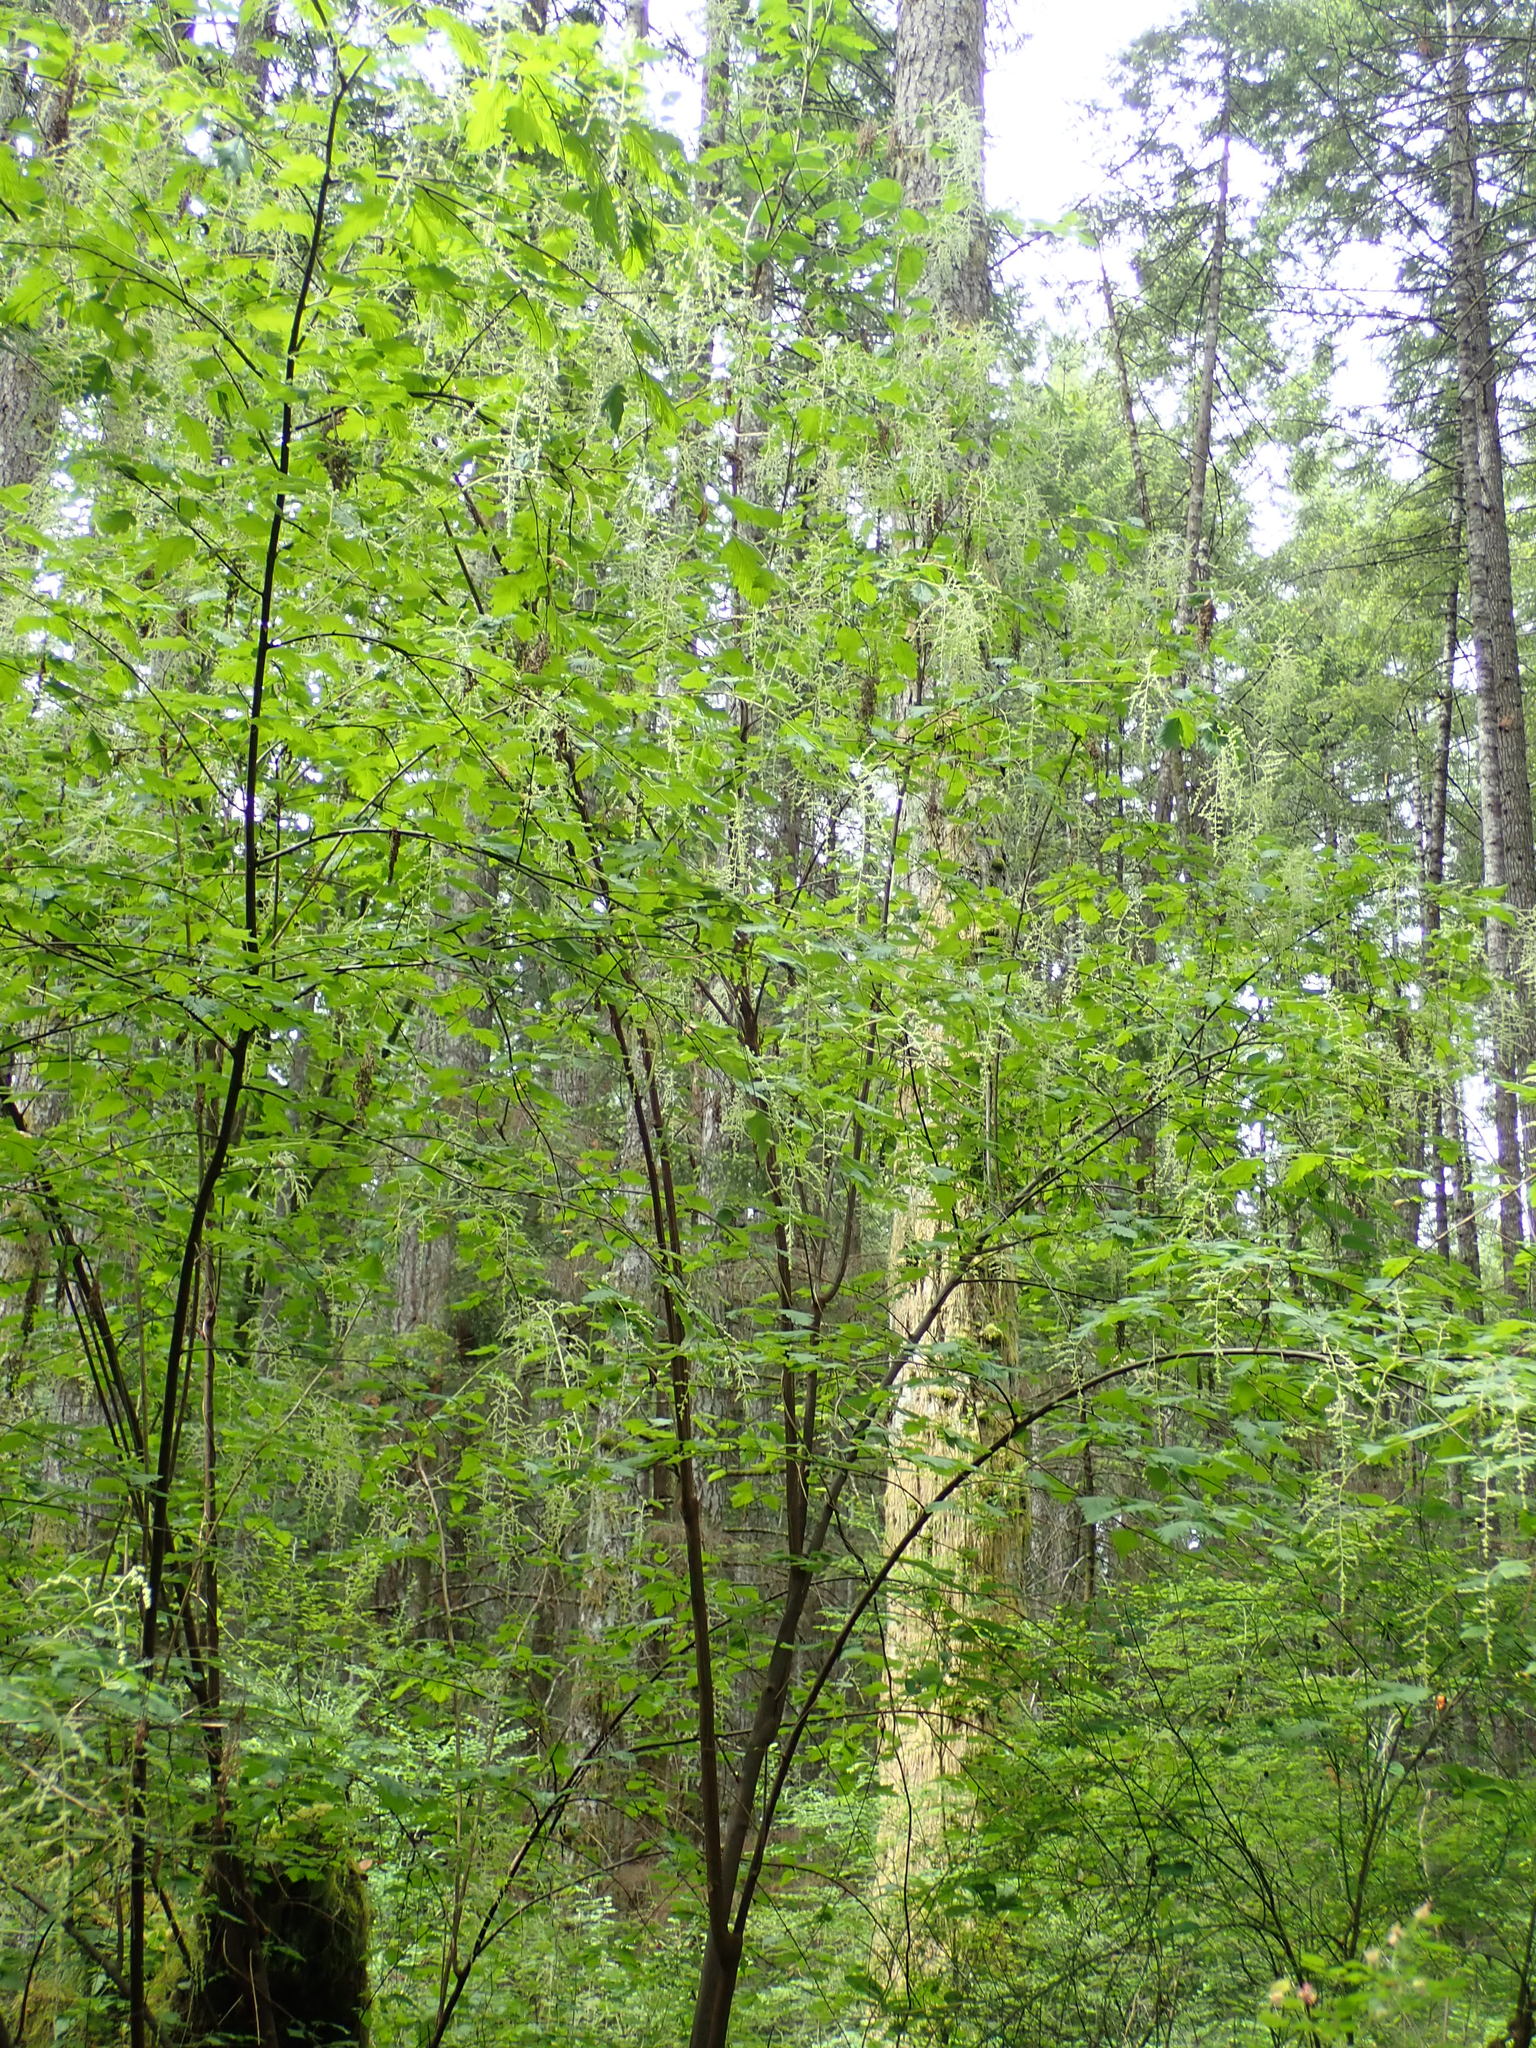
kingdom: Plantae
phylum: Tracheophyta
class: Magnoliopsida
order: Rosales
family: Rosaceae
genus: Holodiscus
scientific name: Holodiscus discolor
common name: Oceanspray
